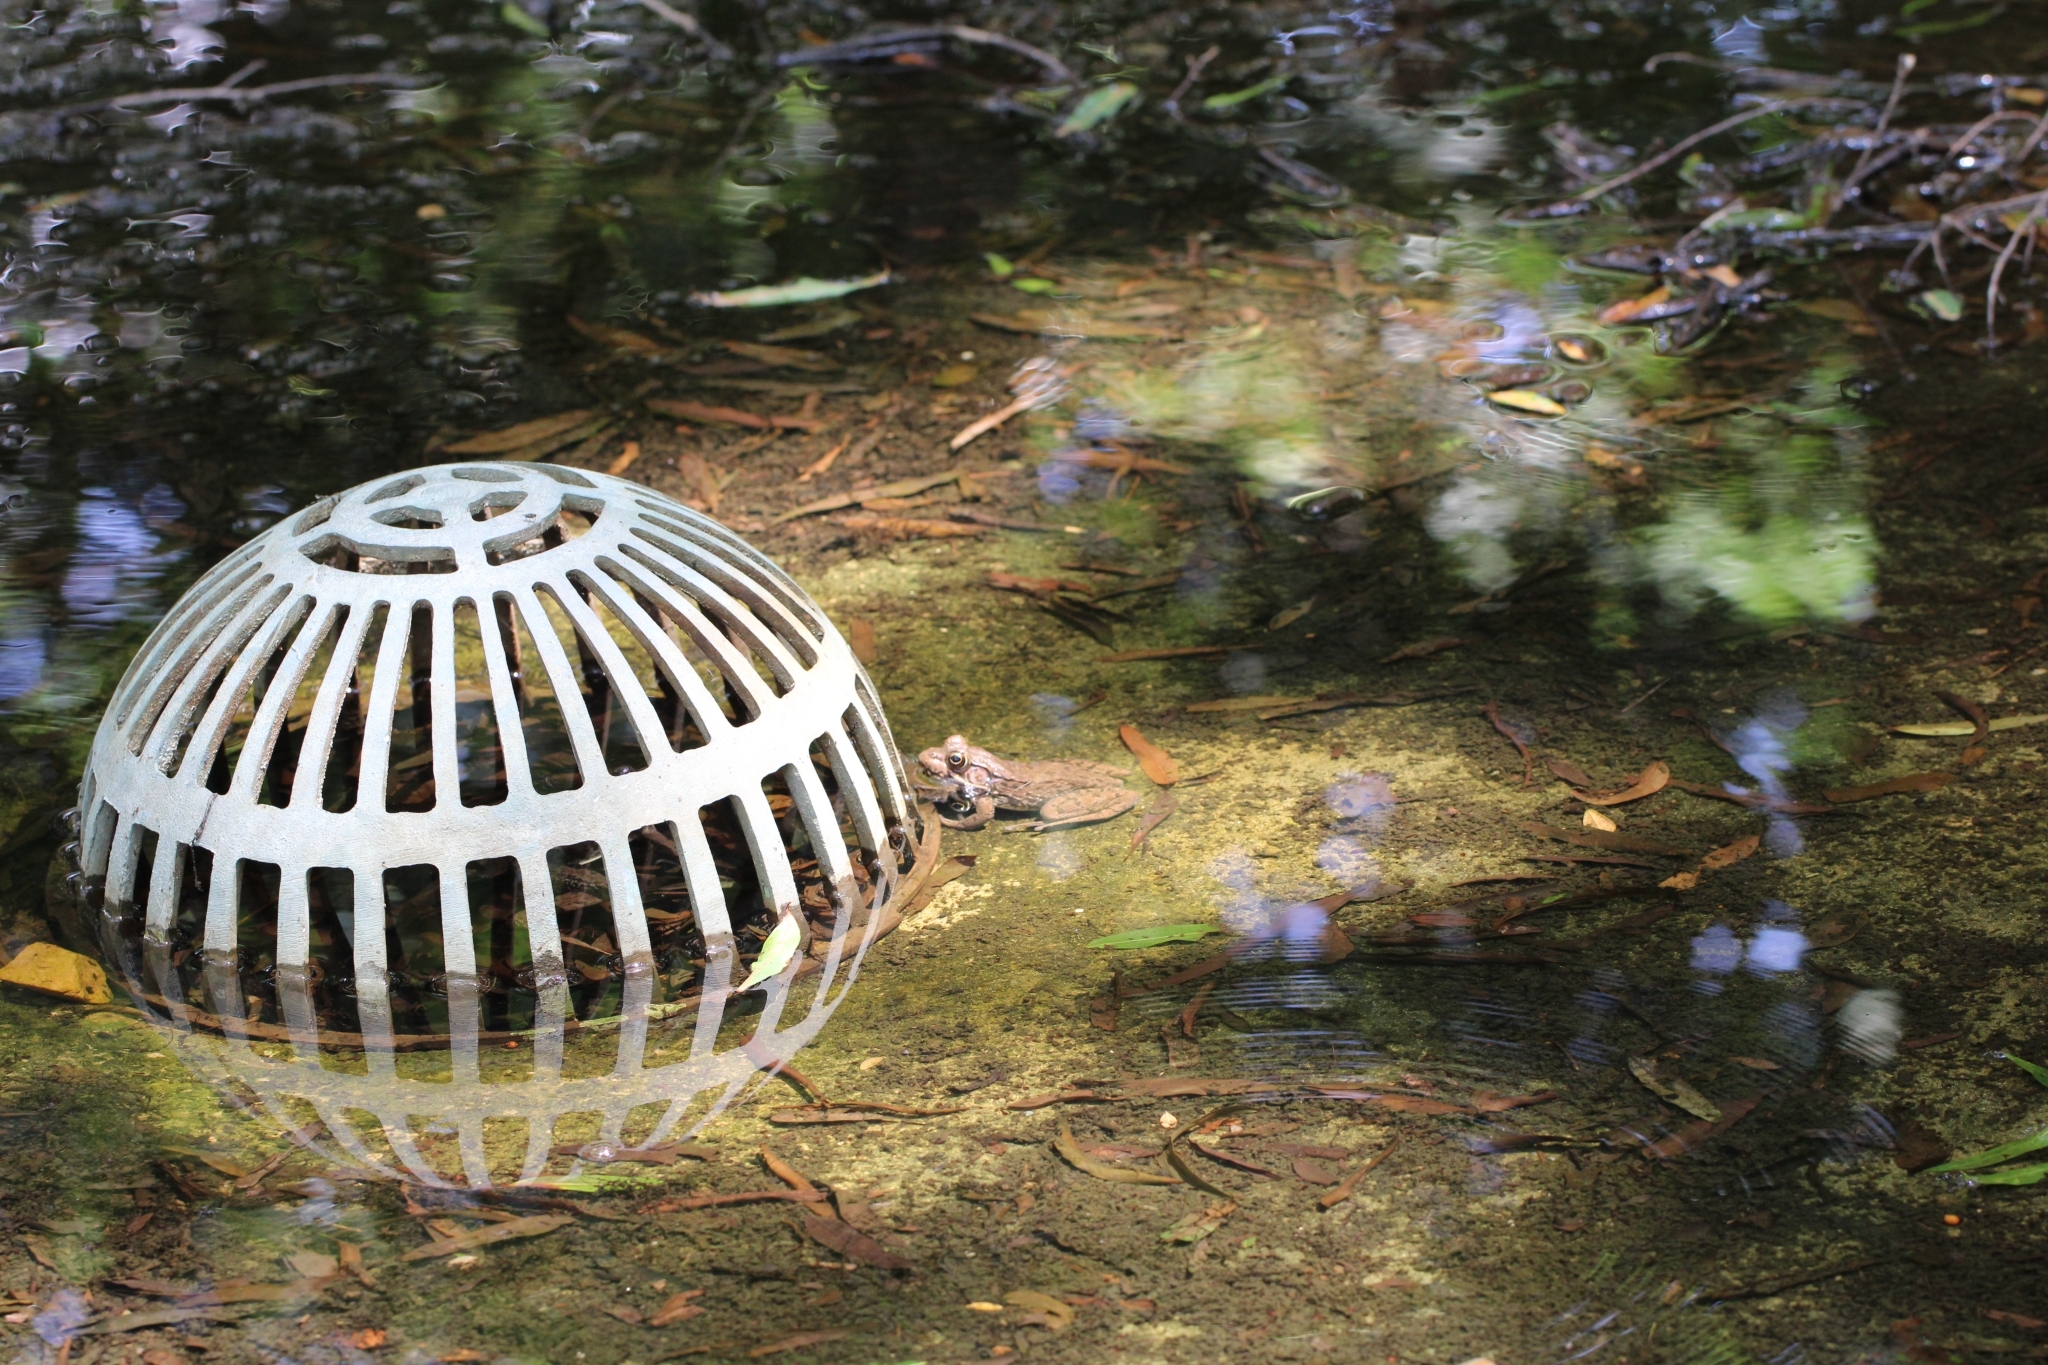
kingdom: Animalia
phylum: Chordata
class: Amphibia
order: Anura
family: Ranidae
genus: Lithobates
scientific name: Lithobates clamitans
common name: Green frog
